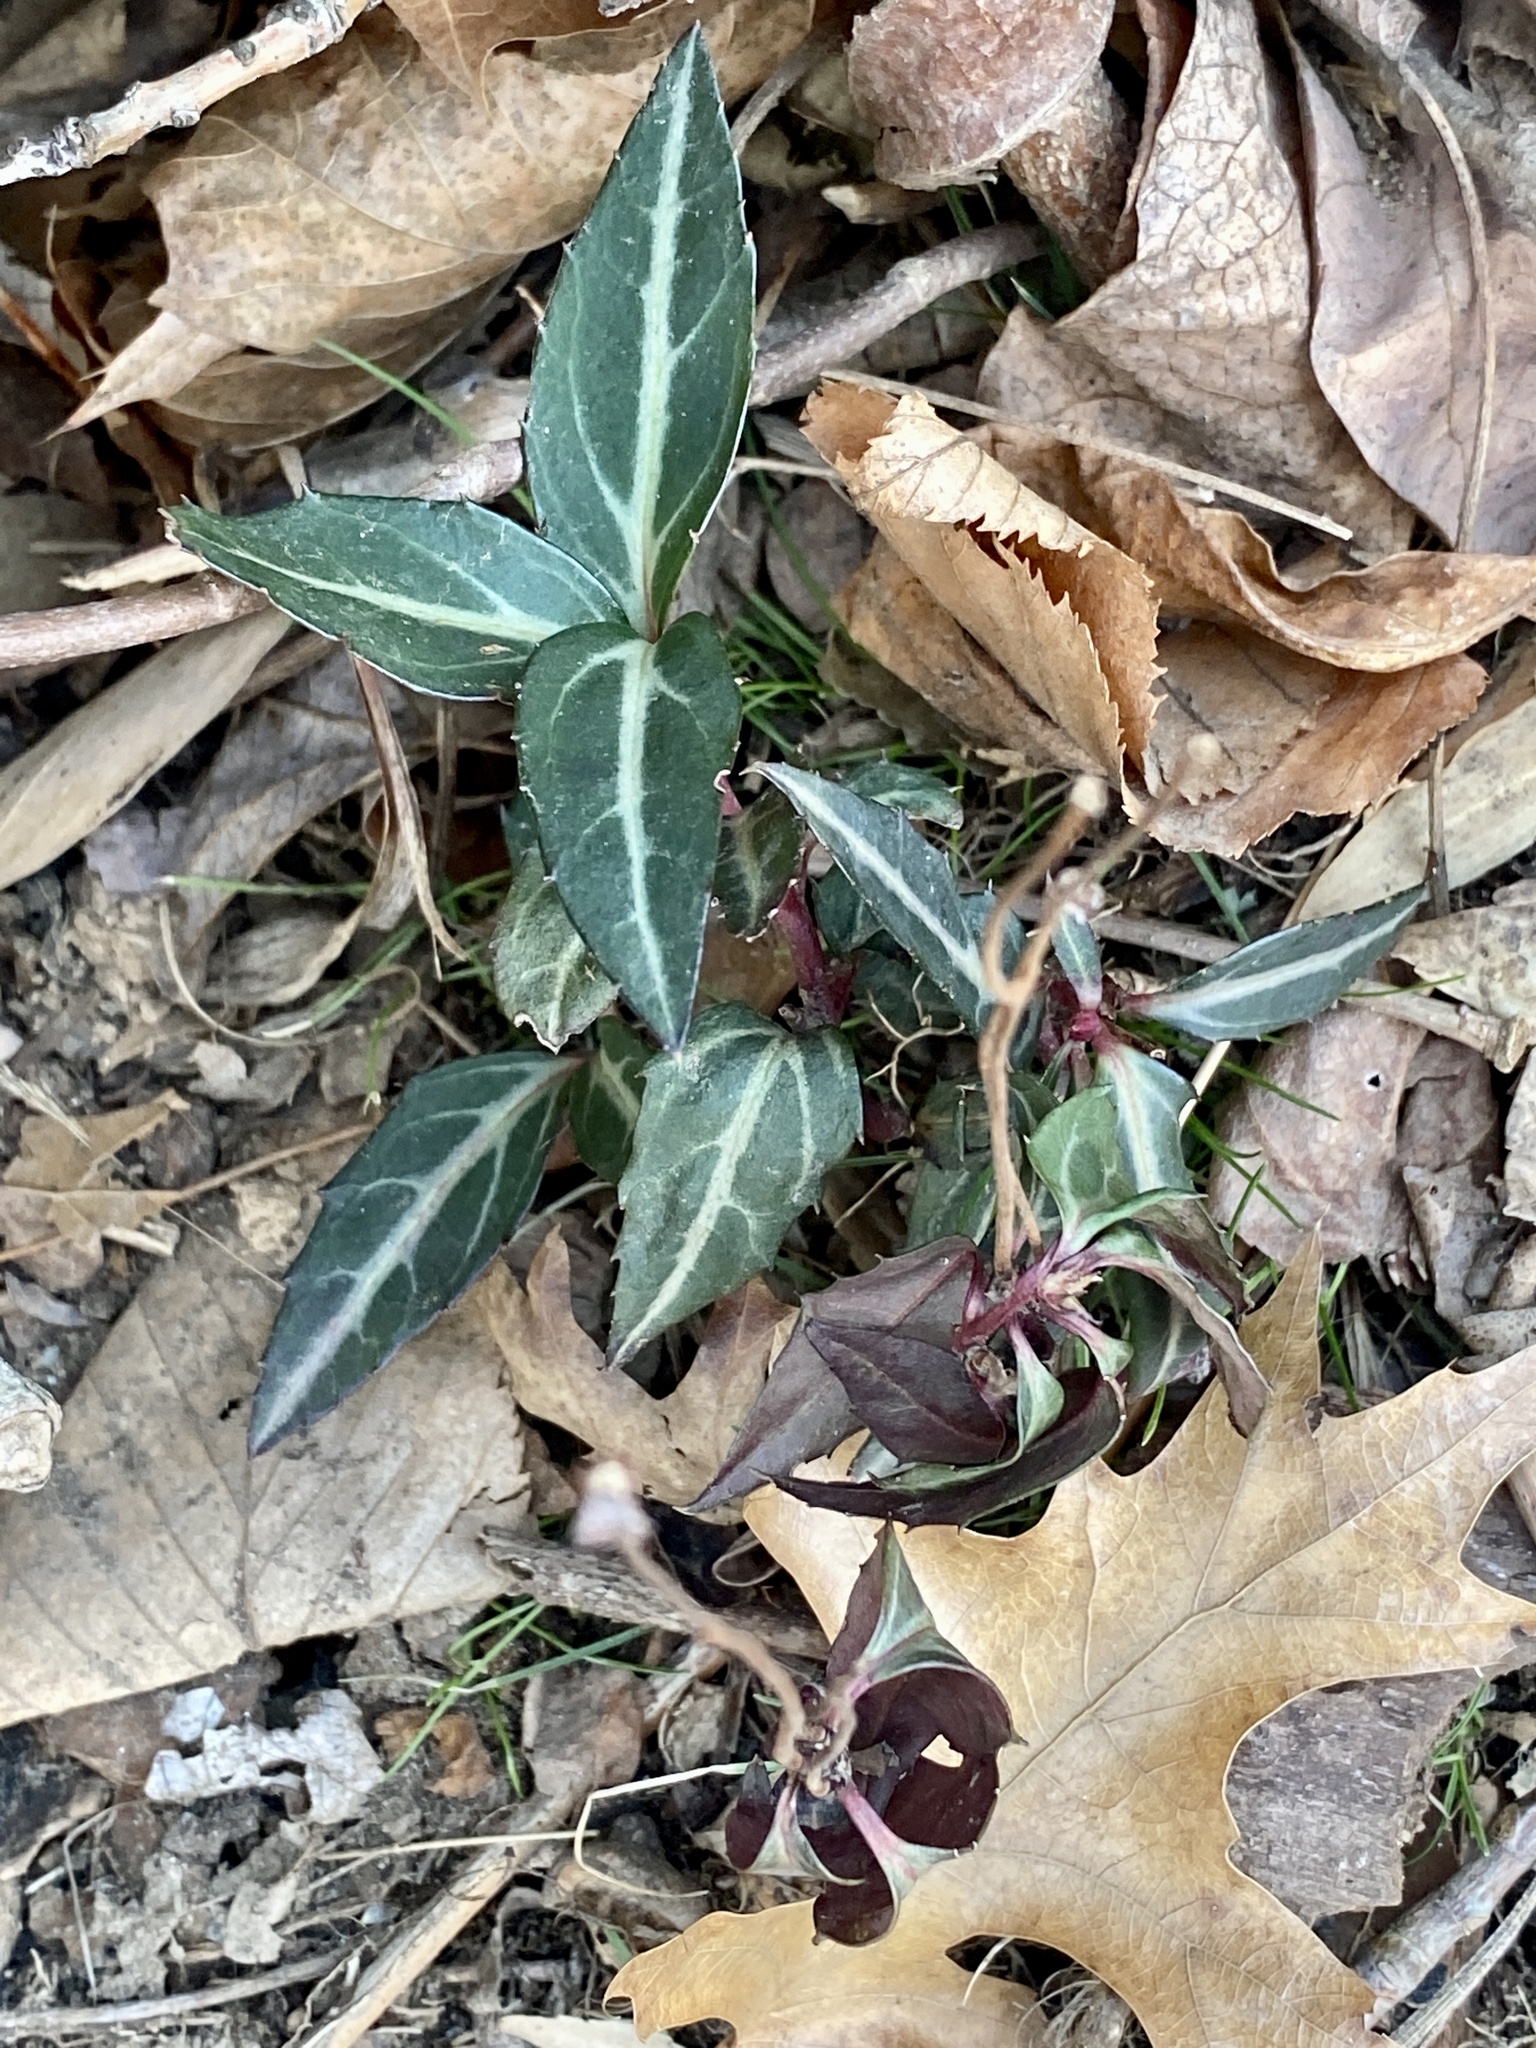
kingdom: Plantae
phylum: Tracheophyta
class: Magnoliopsida
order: Ericales
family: Ericaceae
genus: Chimaphila
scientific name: Chimaphila maculata
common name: Spotted pipsissewa
